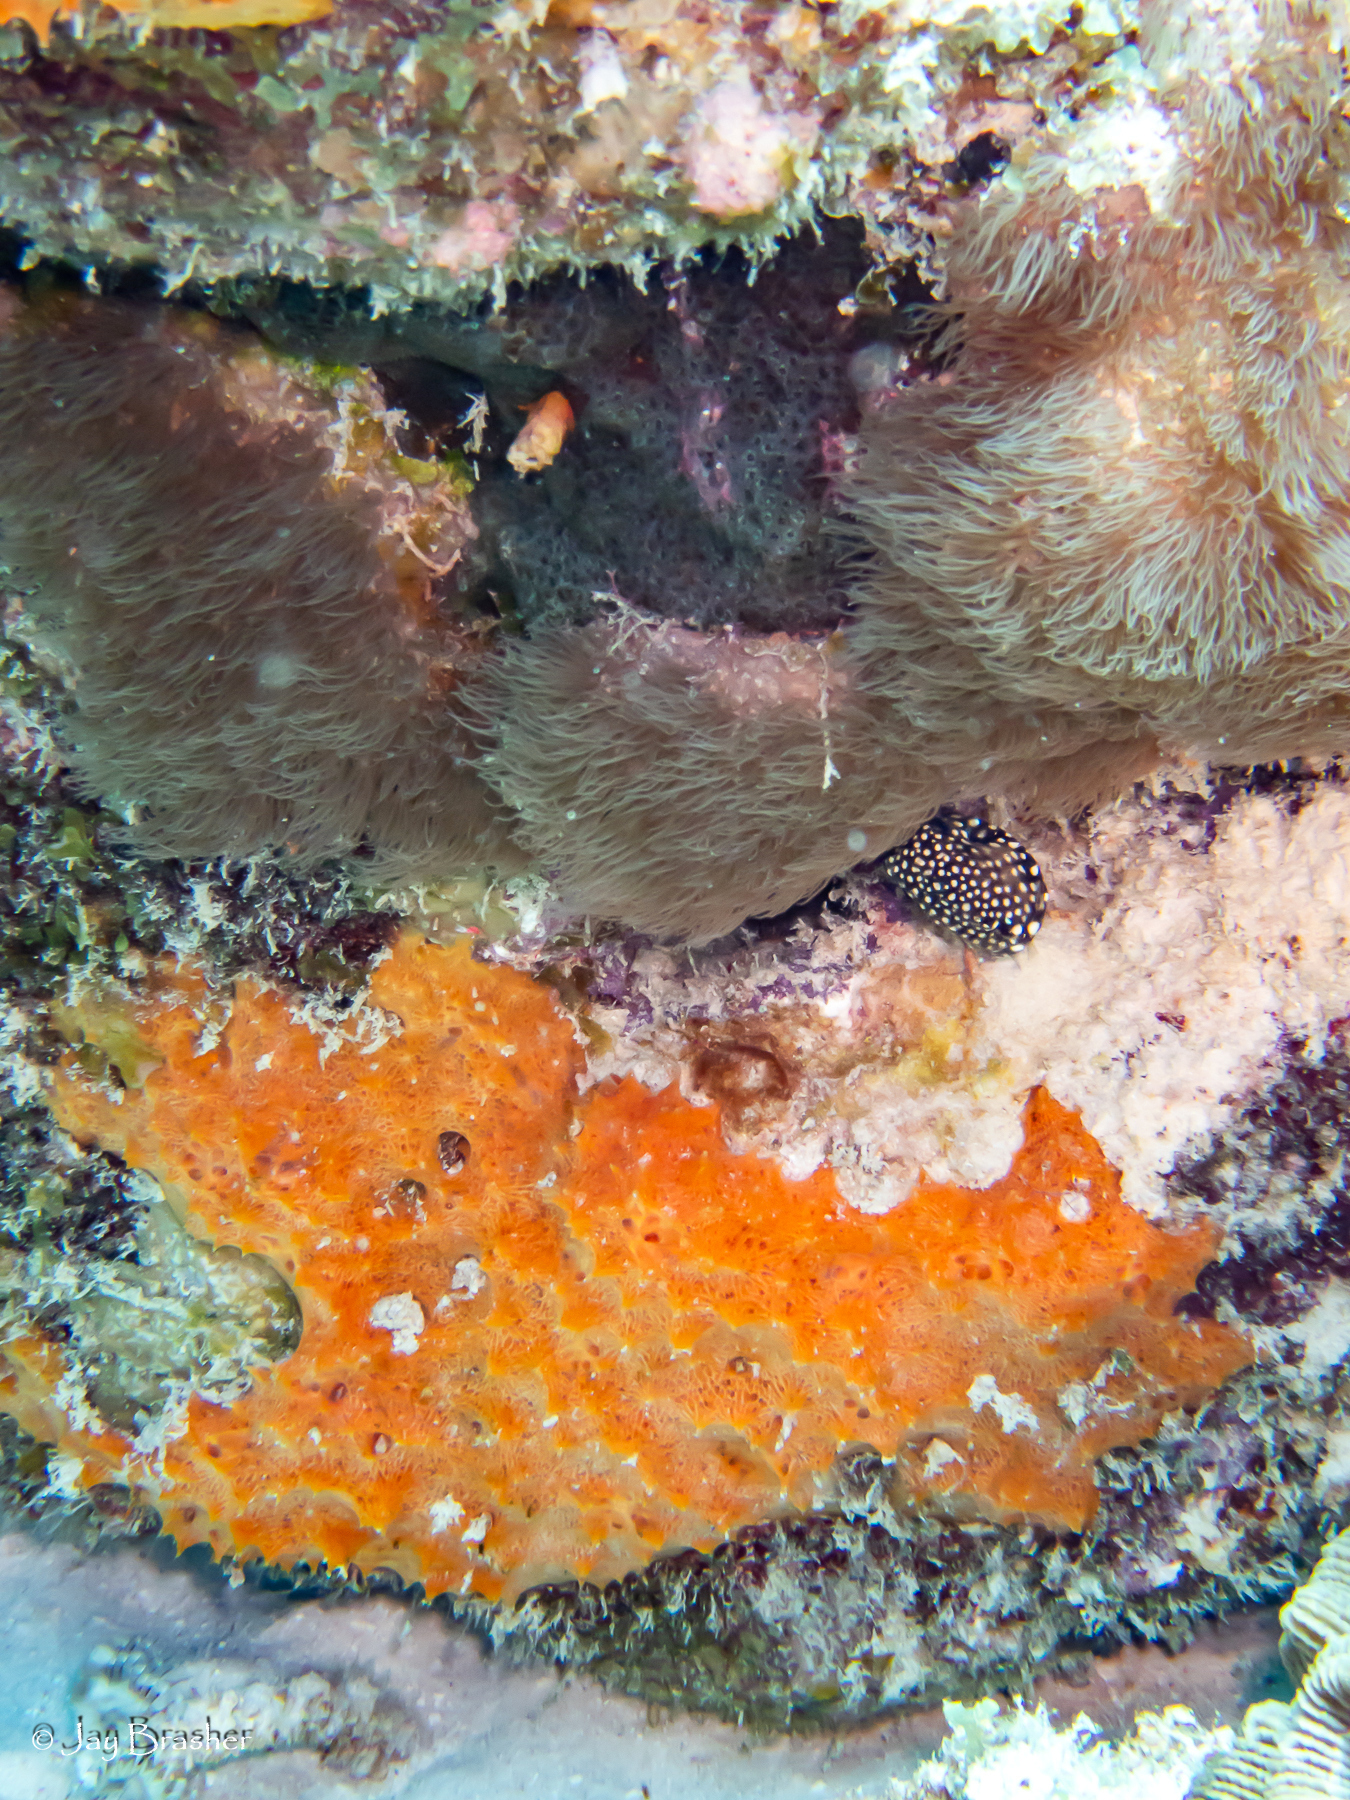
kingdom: Animalia
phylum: Cnidaria
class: Anthozoa
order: Scleralcyonacea
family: Erythropodiidae
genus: Erythropodium
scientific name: Erythropodium caribaeorum
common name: Encrusting gorgonian
